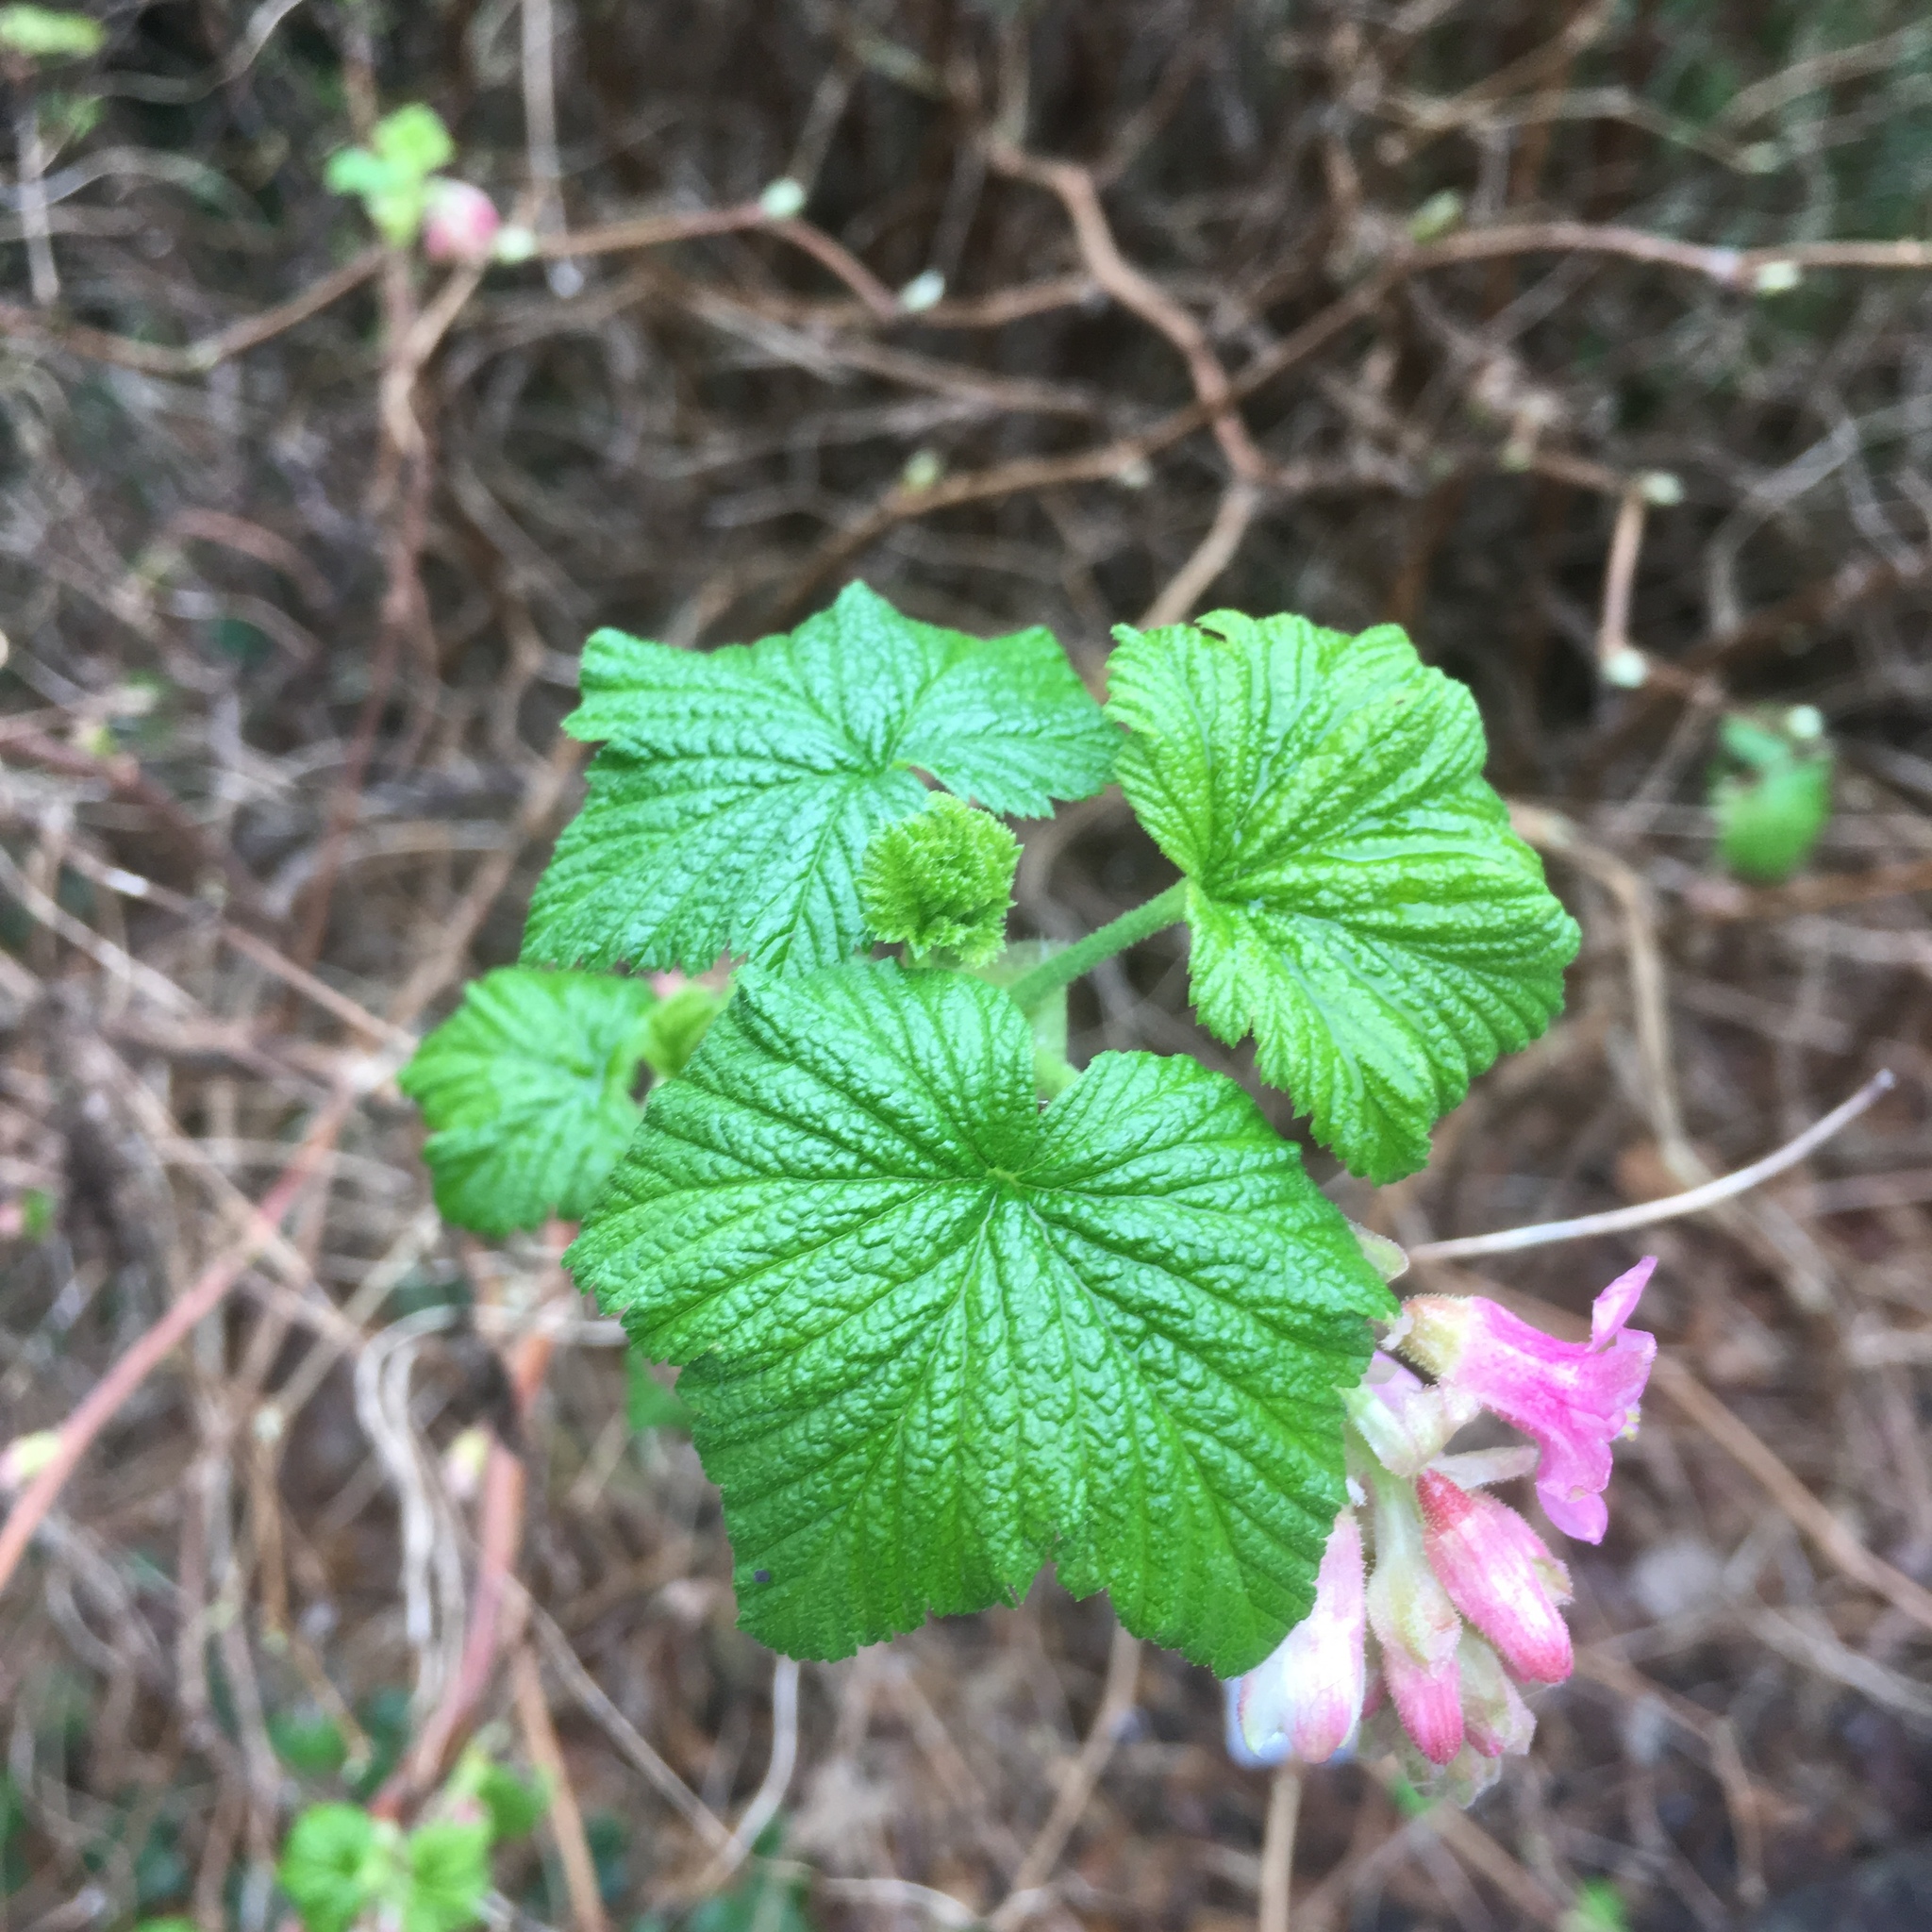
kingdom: Plantae
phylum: Tracheophyta
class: Magnoliopsida
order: Saxifragales
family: Grossulariaceae
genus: Ribes
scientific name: Ribes sanguineum
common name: Flowering currant
